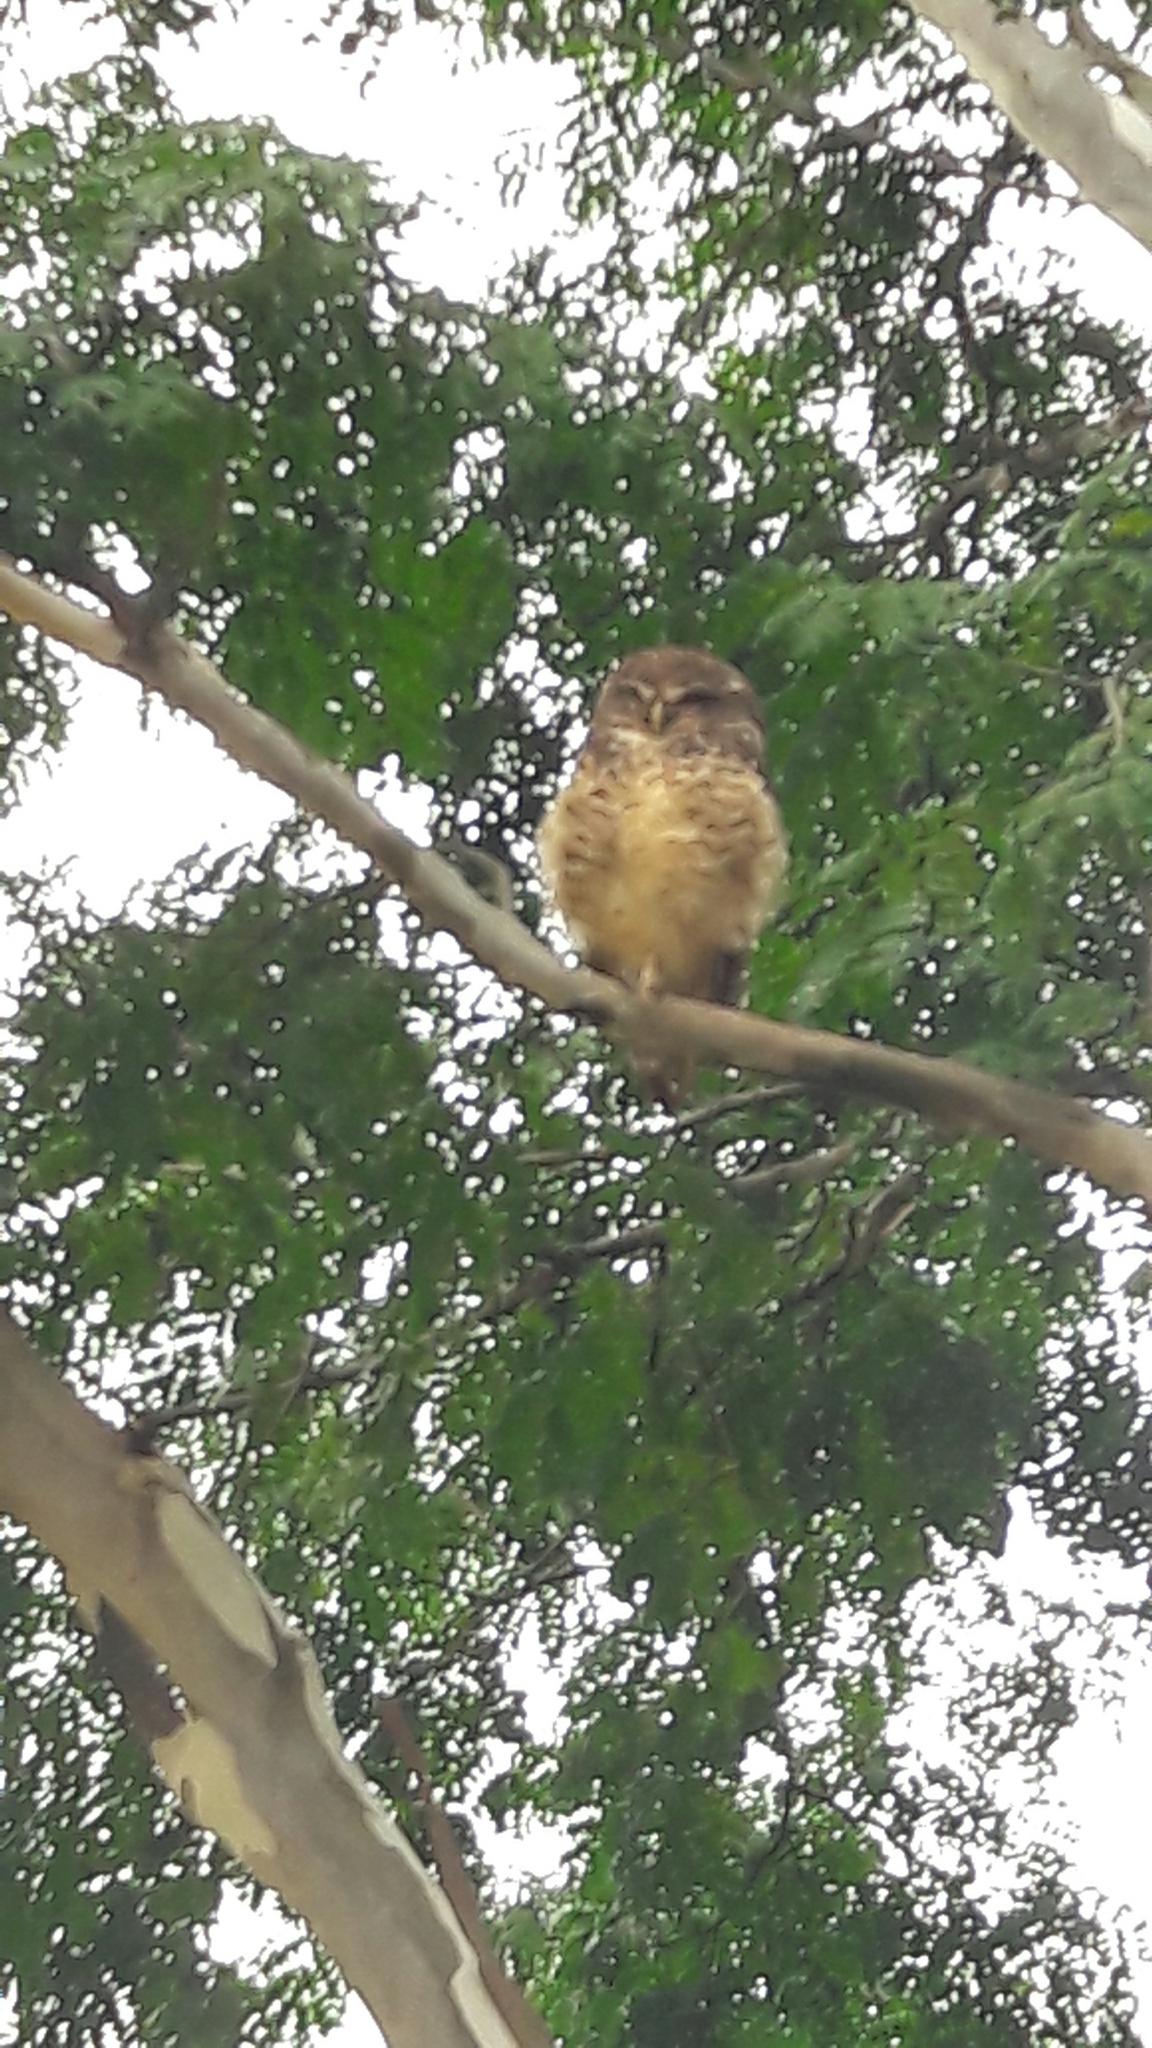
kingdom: Animalia
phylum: Chordata
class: Aves
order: Strigiformes
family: Strigidae
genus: Athene
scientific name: Athene cunicularia
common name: Burrowing owl
